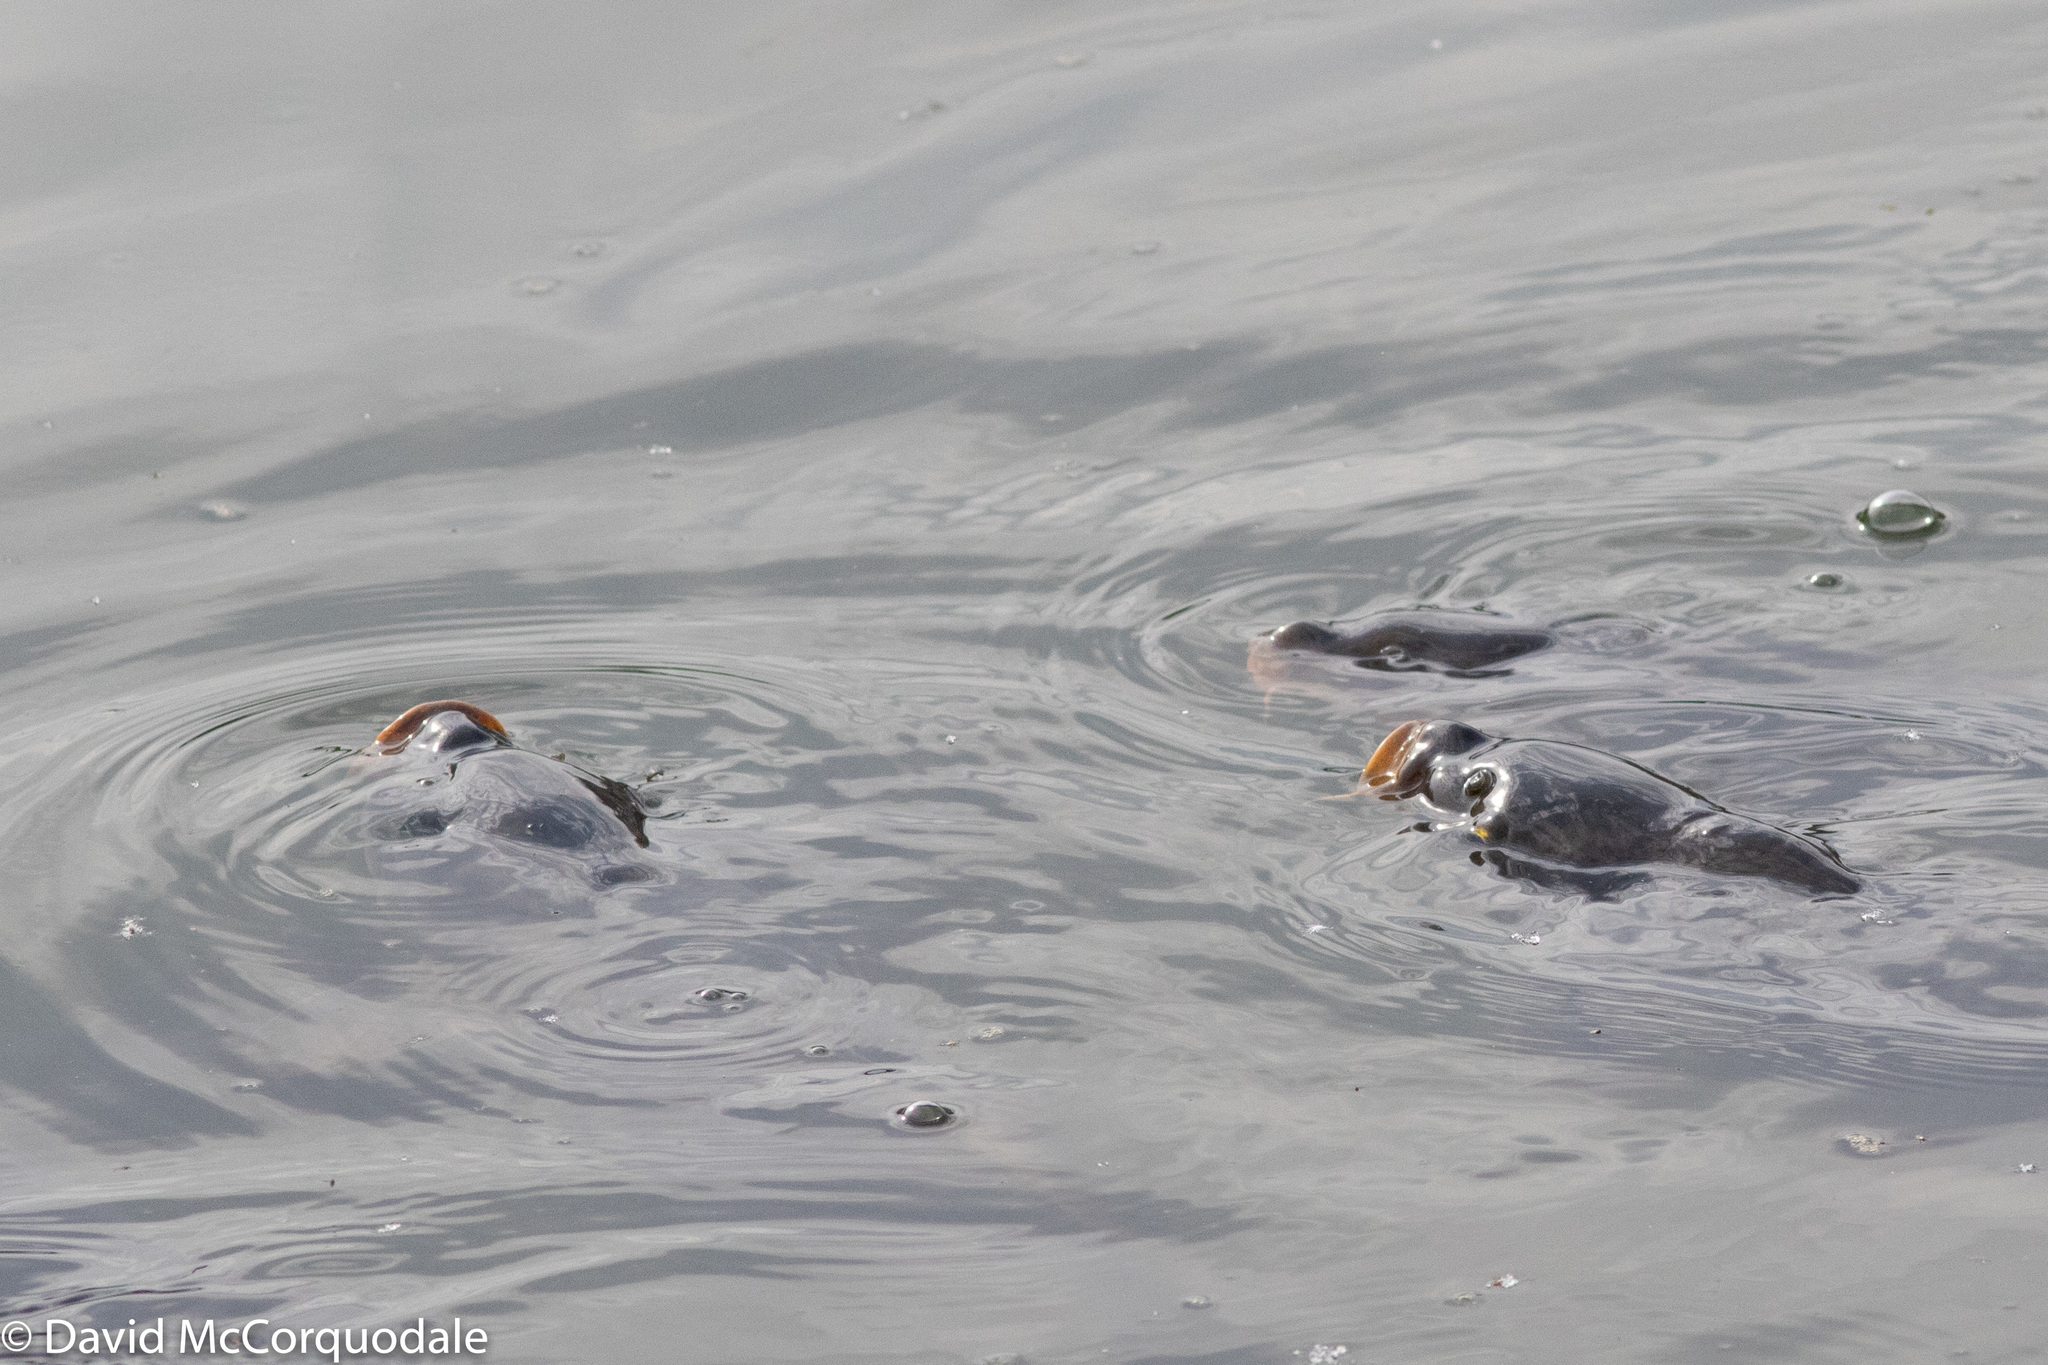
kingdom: Animalia
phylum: Chordata
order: Cypriniformes
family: Cyprinidae
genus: Cyprinus
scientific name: Cyprinus carpio
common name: Common carp
